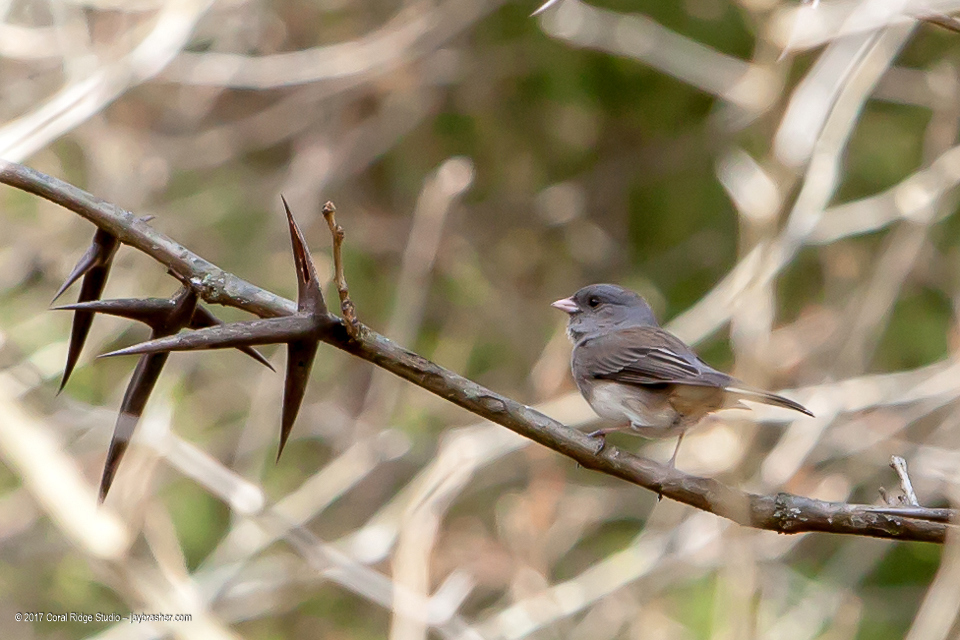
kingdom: Animalia
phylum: Chordata
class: Aves
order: Passeriformes
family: Passerellidae
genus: Junco
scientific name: Junco hyemalis
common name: Dark-eyed junco
